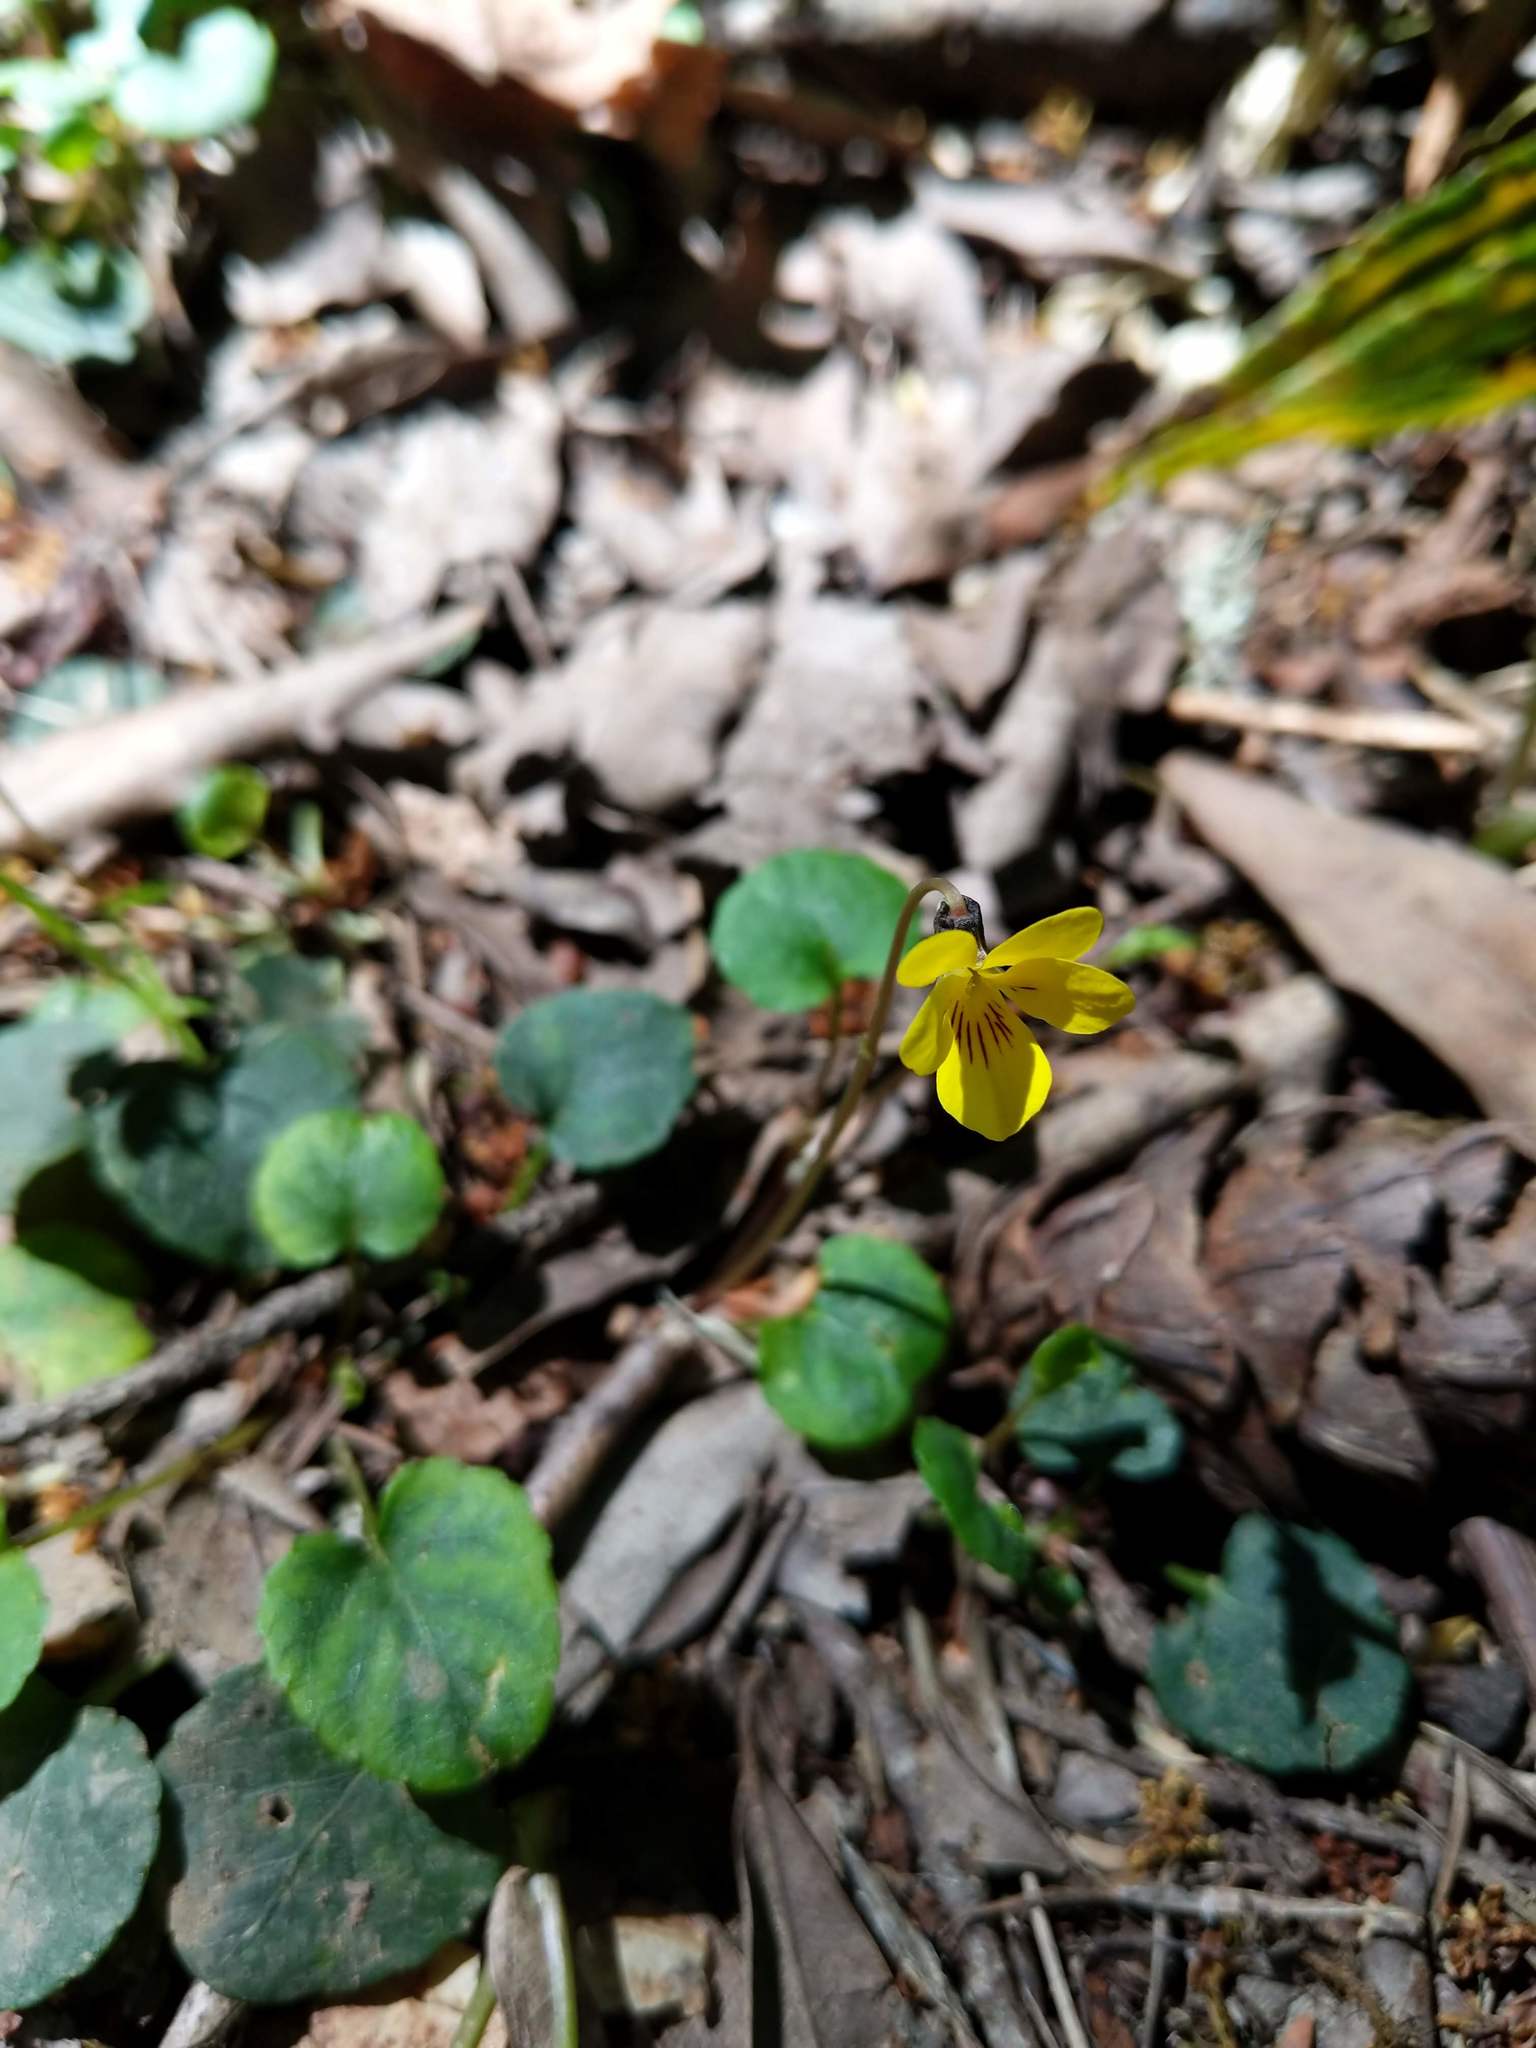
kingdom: Plantae
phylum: Tracheophyta
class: Magnoliopsida
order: Malpighiales
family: Violaceae
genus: Viola
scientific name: Viola sempervirens
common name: Evergreen violet
